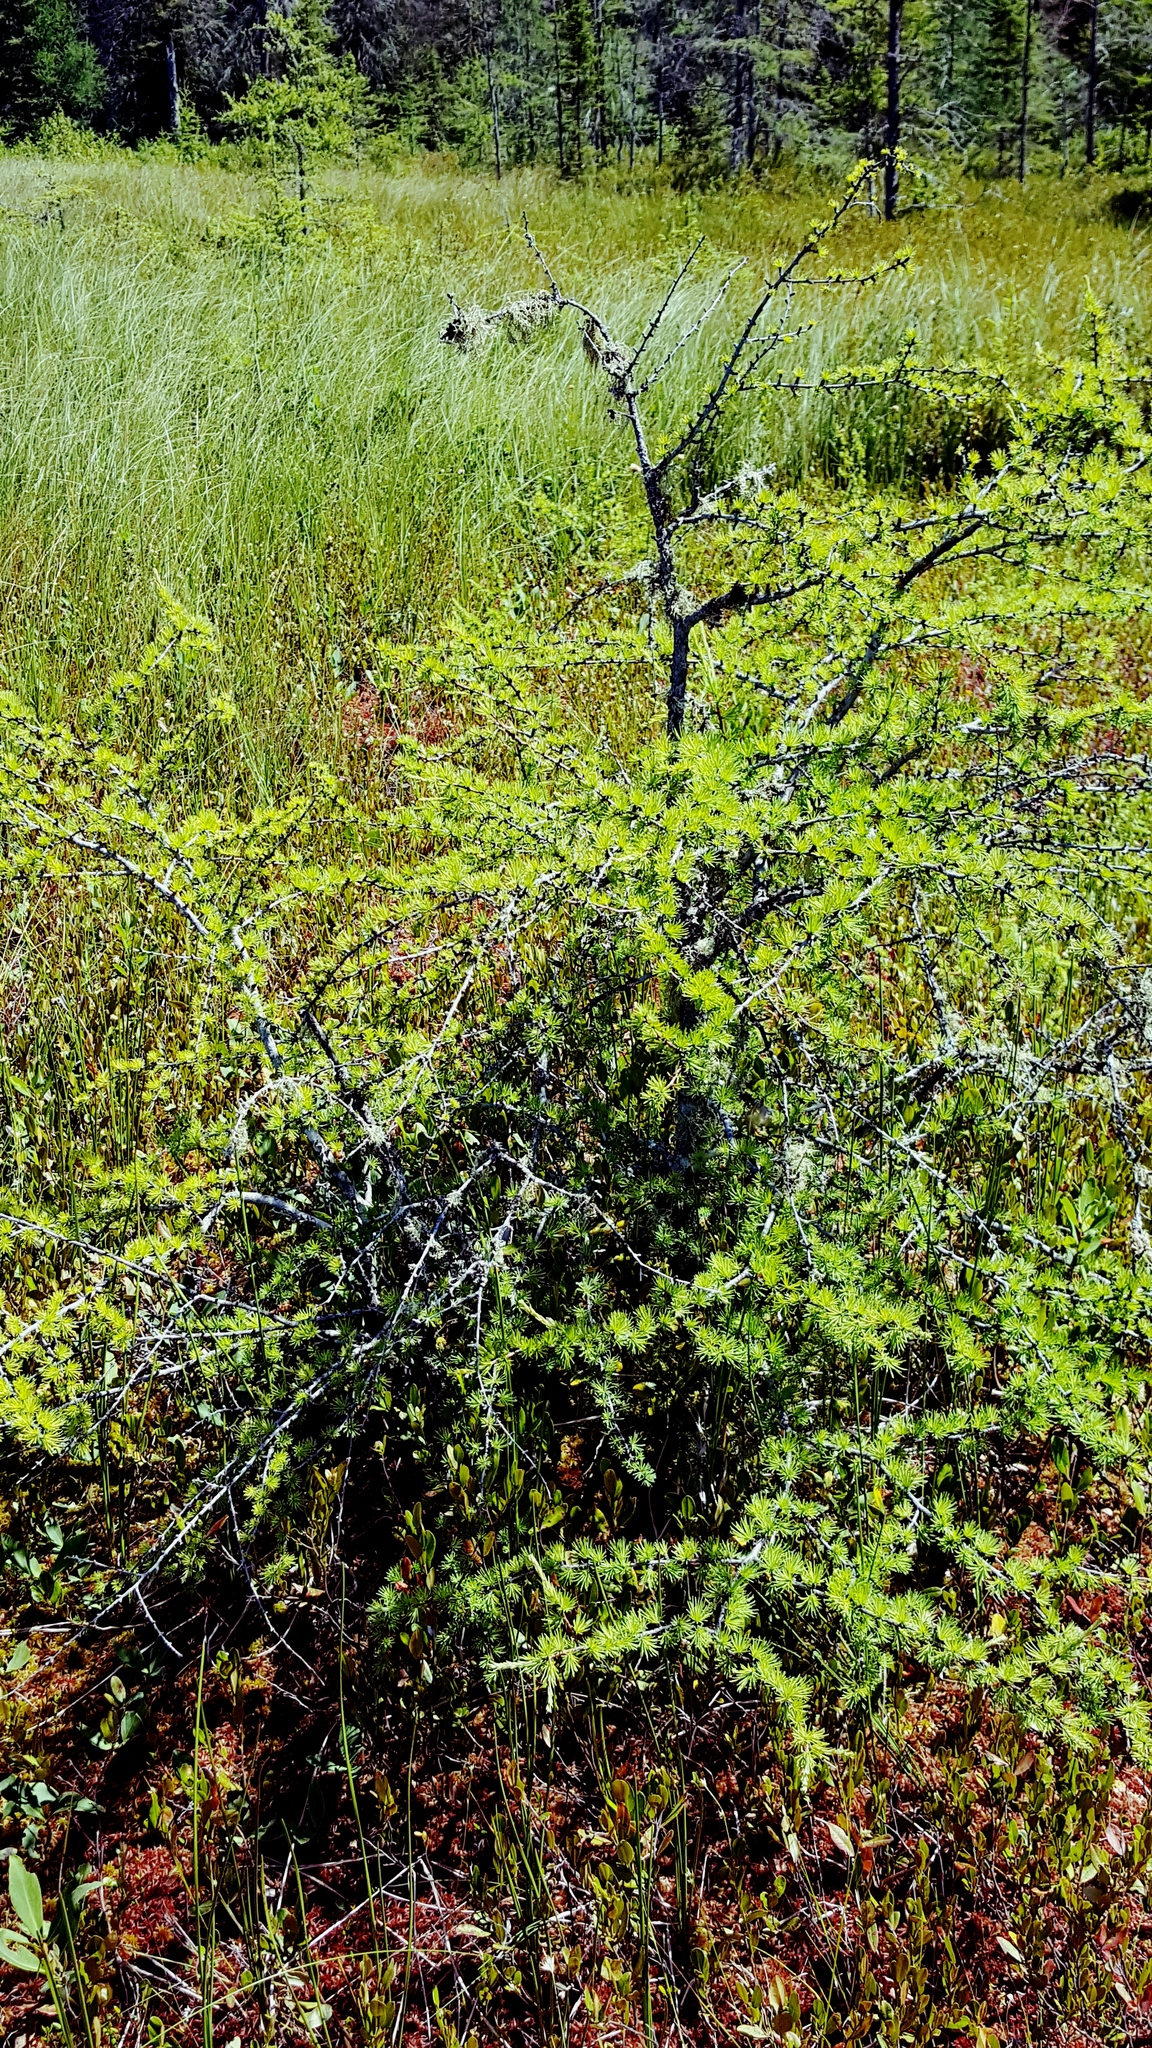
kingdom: Plantae
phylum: Tracheophyta
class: Pinopsida
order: Pinales
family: Pinaceae
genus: Larix
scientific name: Larix laricina
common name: American larch
